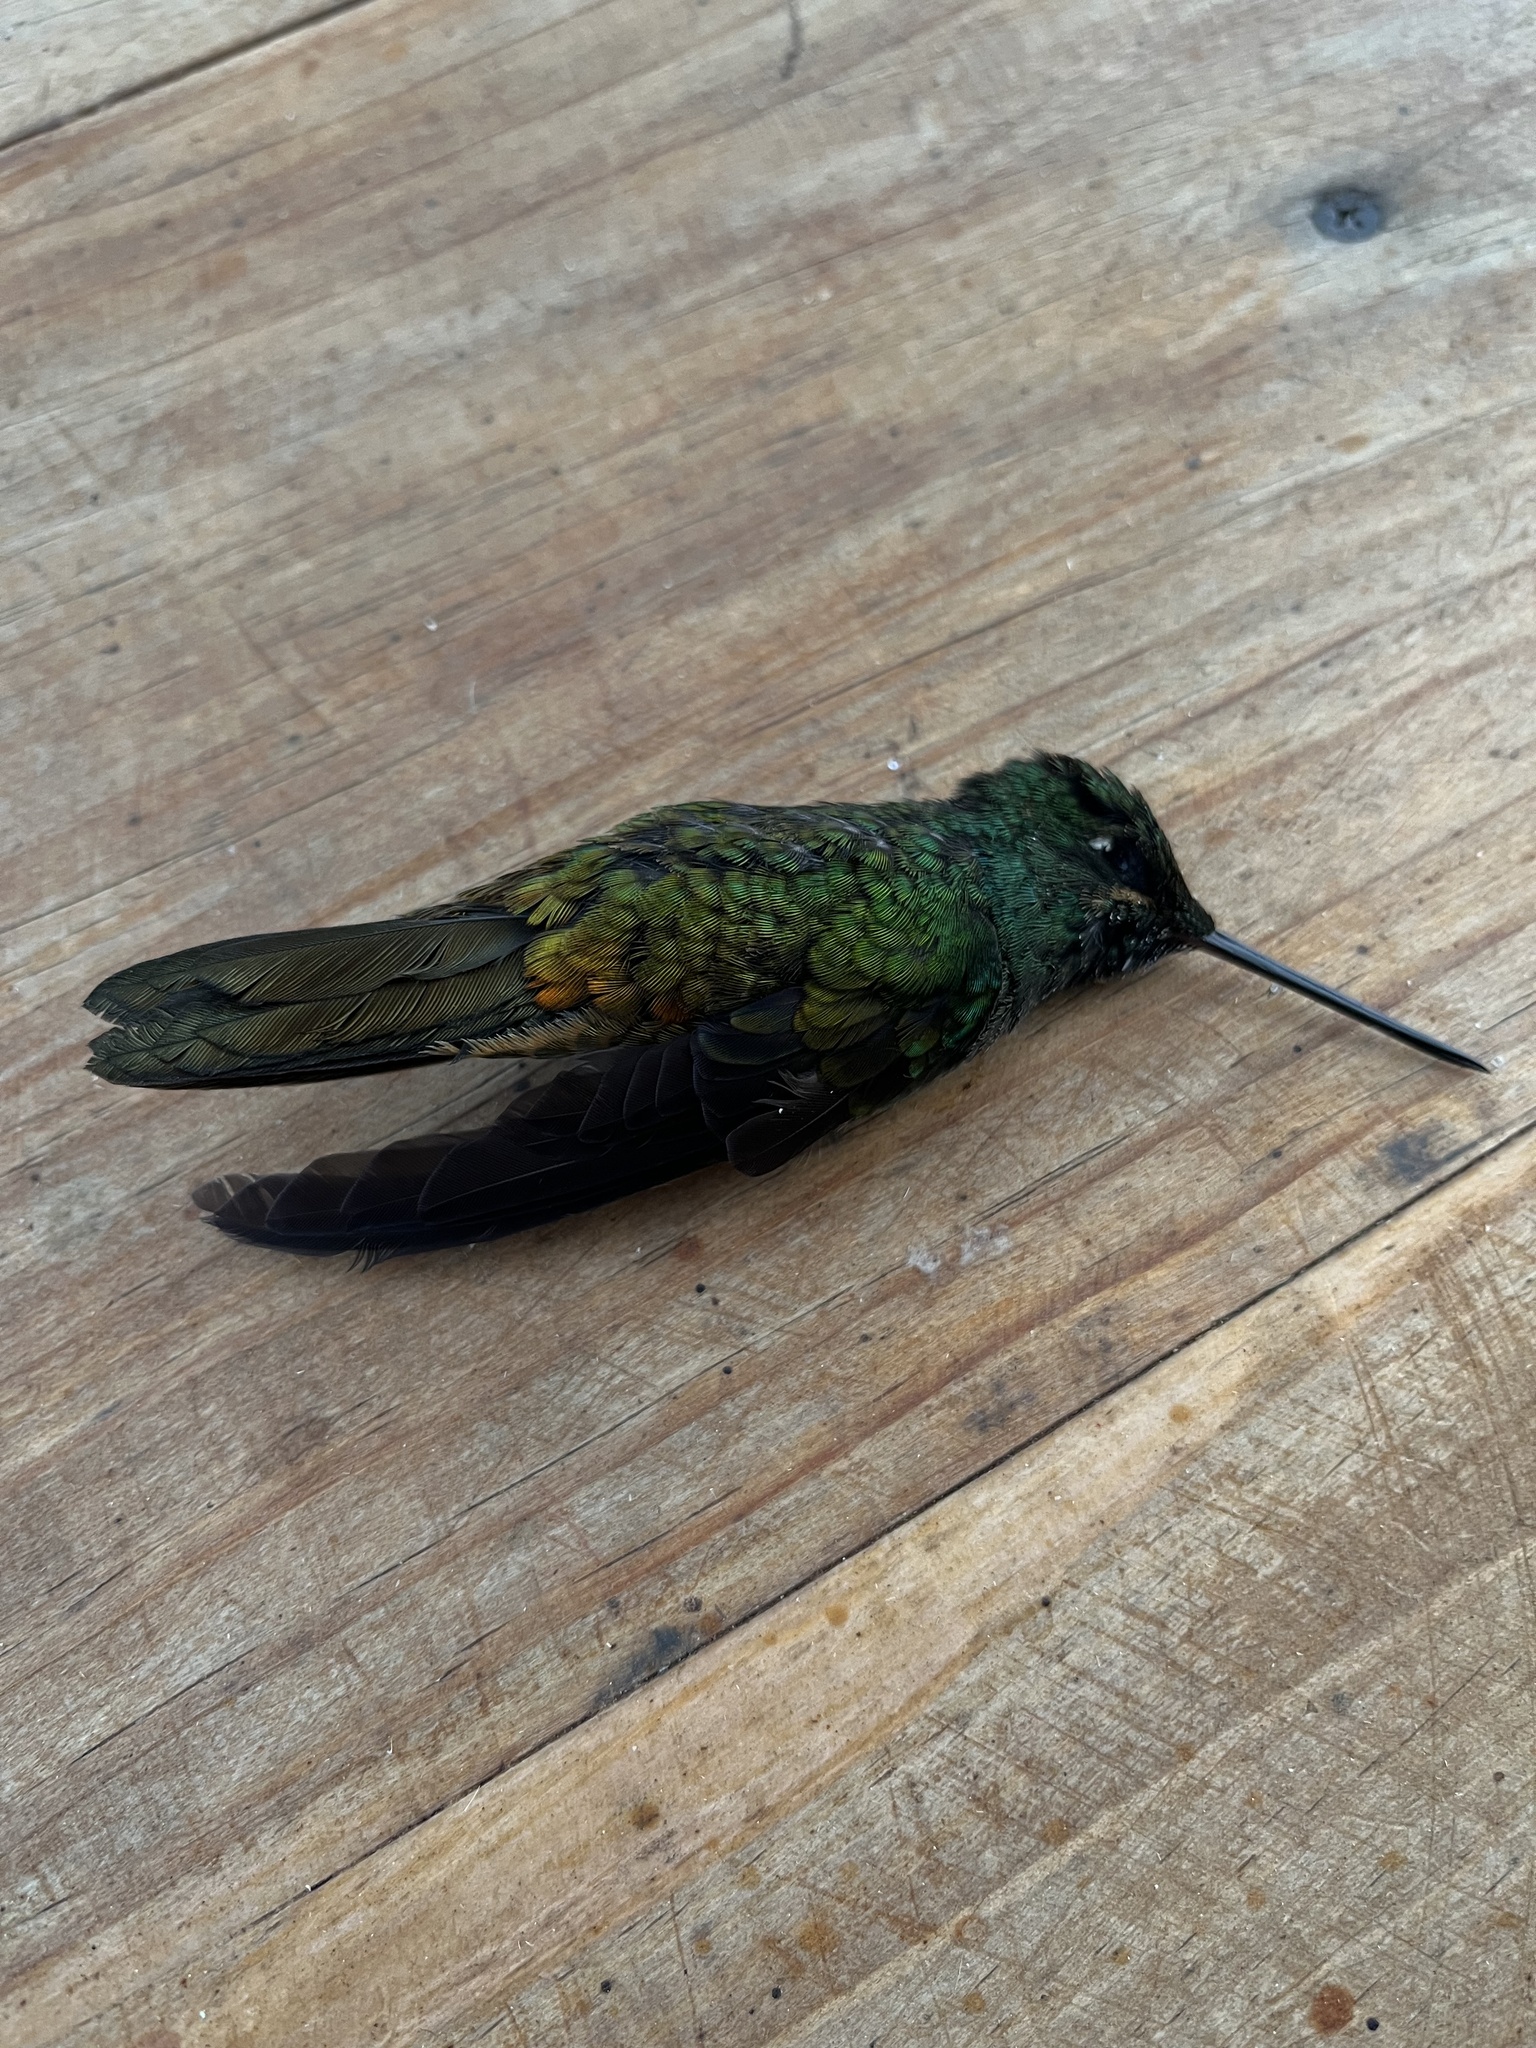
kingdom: Animalia
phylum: Chordata
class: Aves
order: Apodiformes
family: Trochilidae
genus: Coeligena
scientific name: Coeligena bonapartei
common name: Golden-bellied starfrontlet
